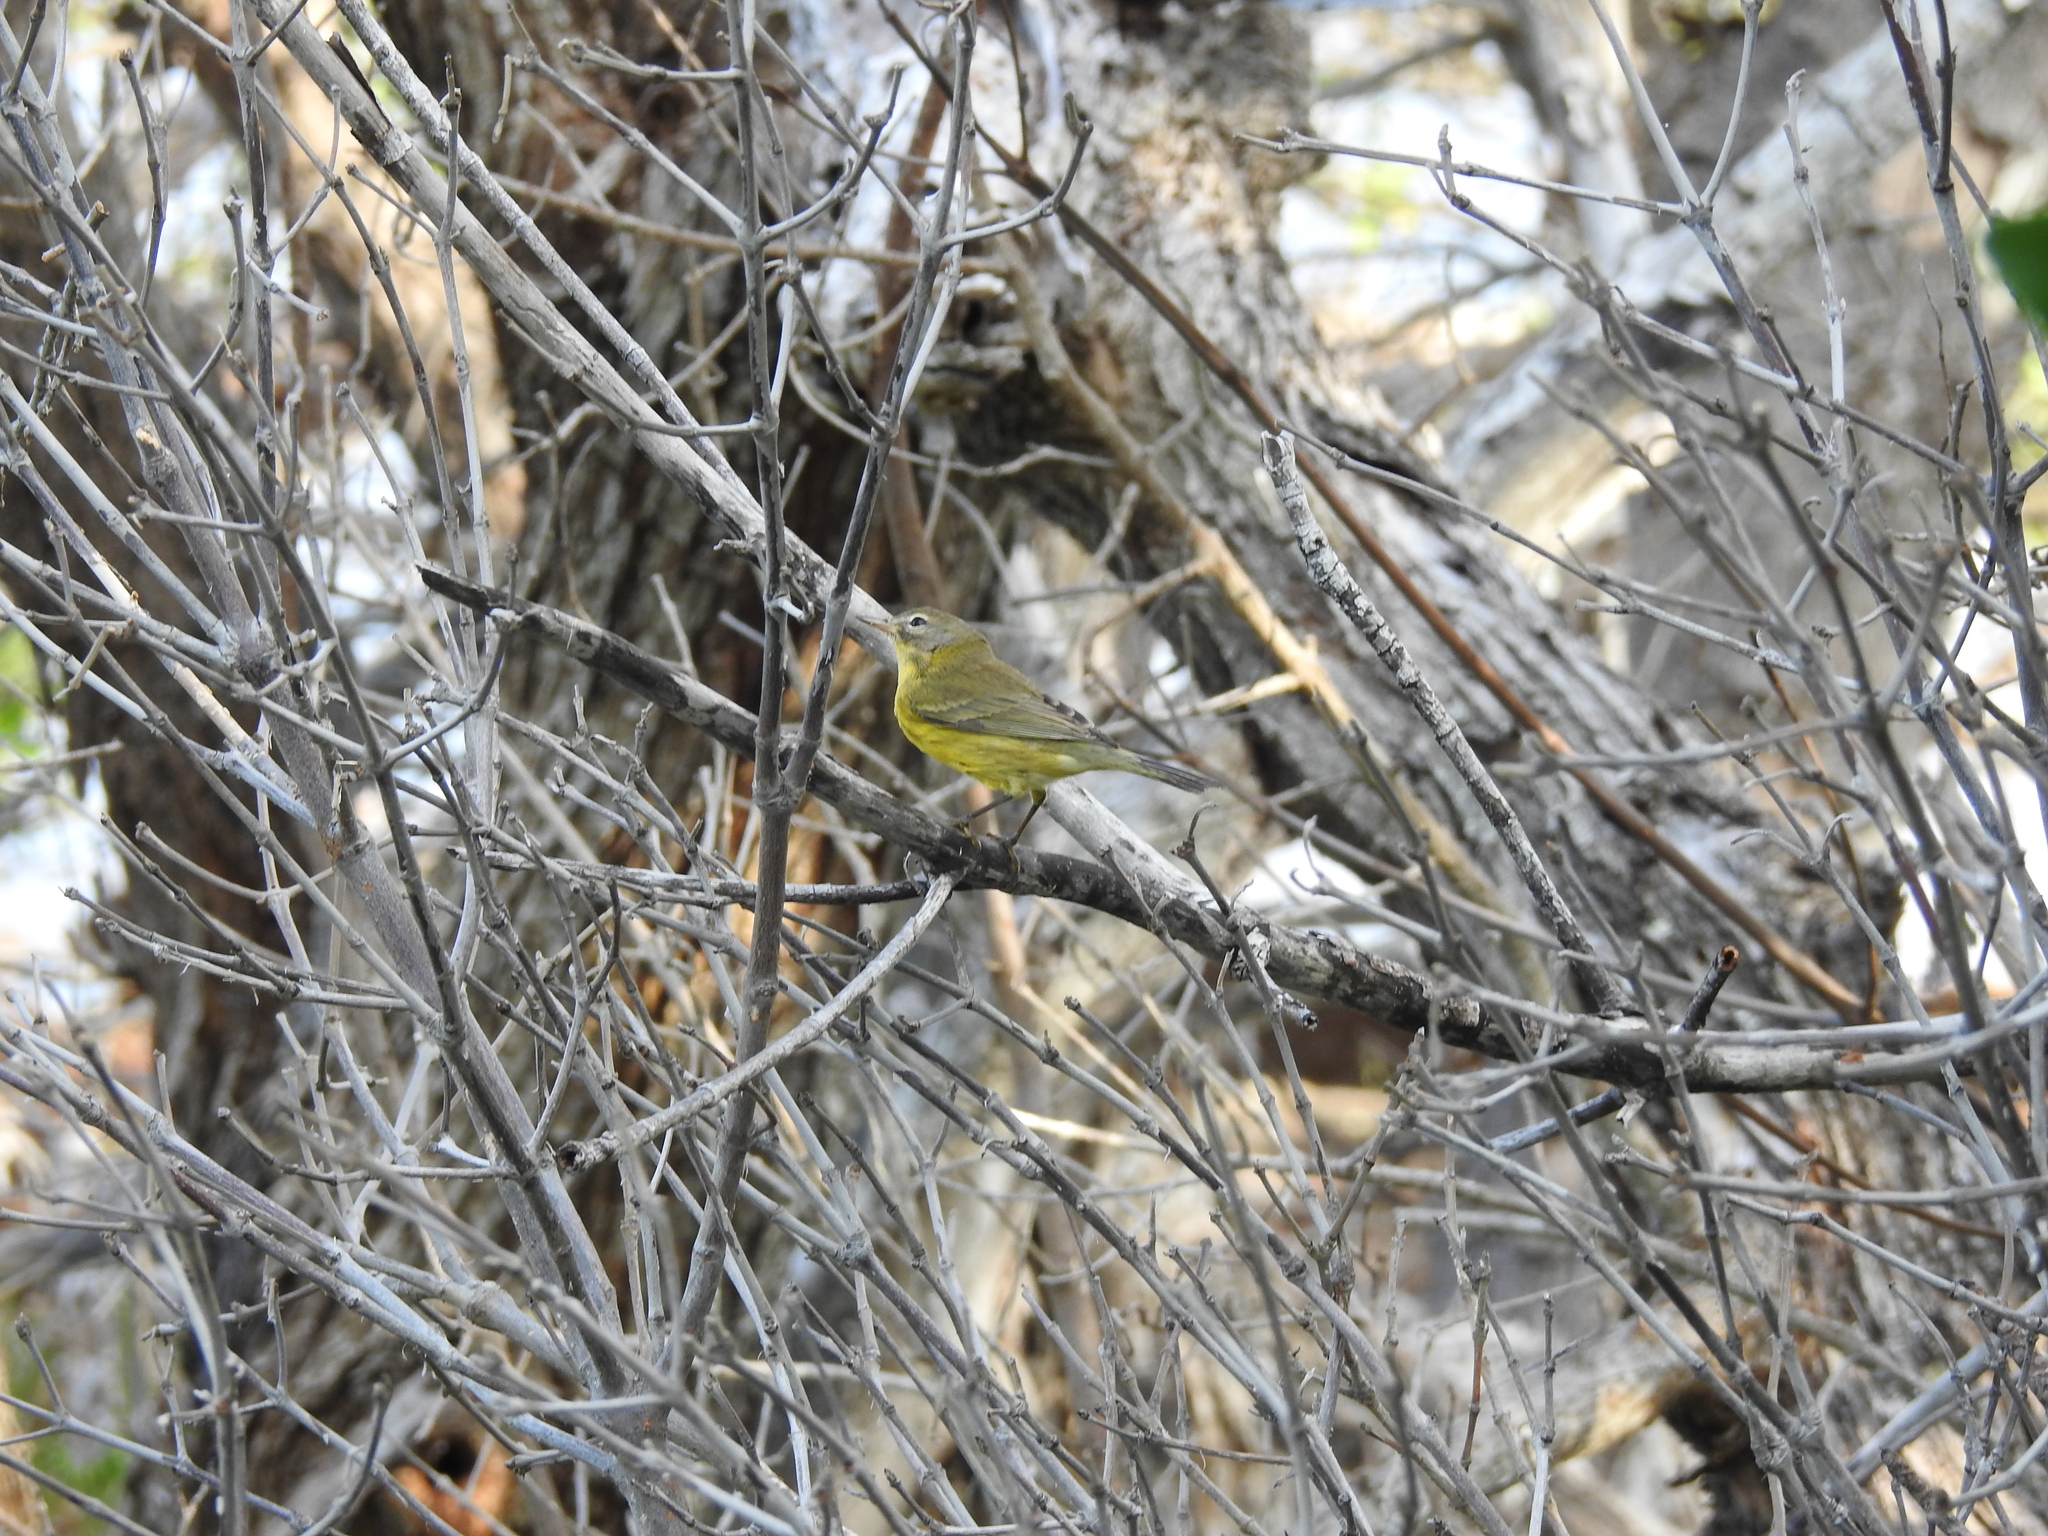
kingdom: Animalia
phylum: Chordata
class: Aves
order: Passeriformes
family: Parulidae
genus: Setophaga
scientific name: Setophaga discolor
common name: Prairie warbler
